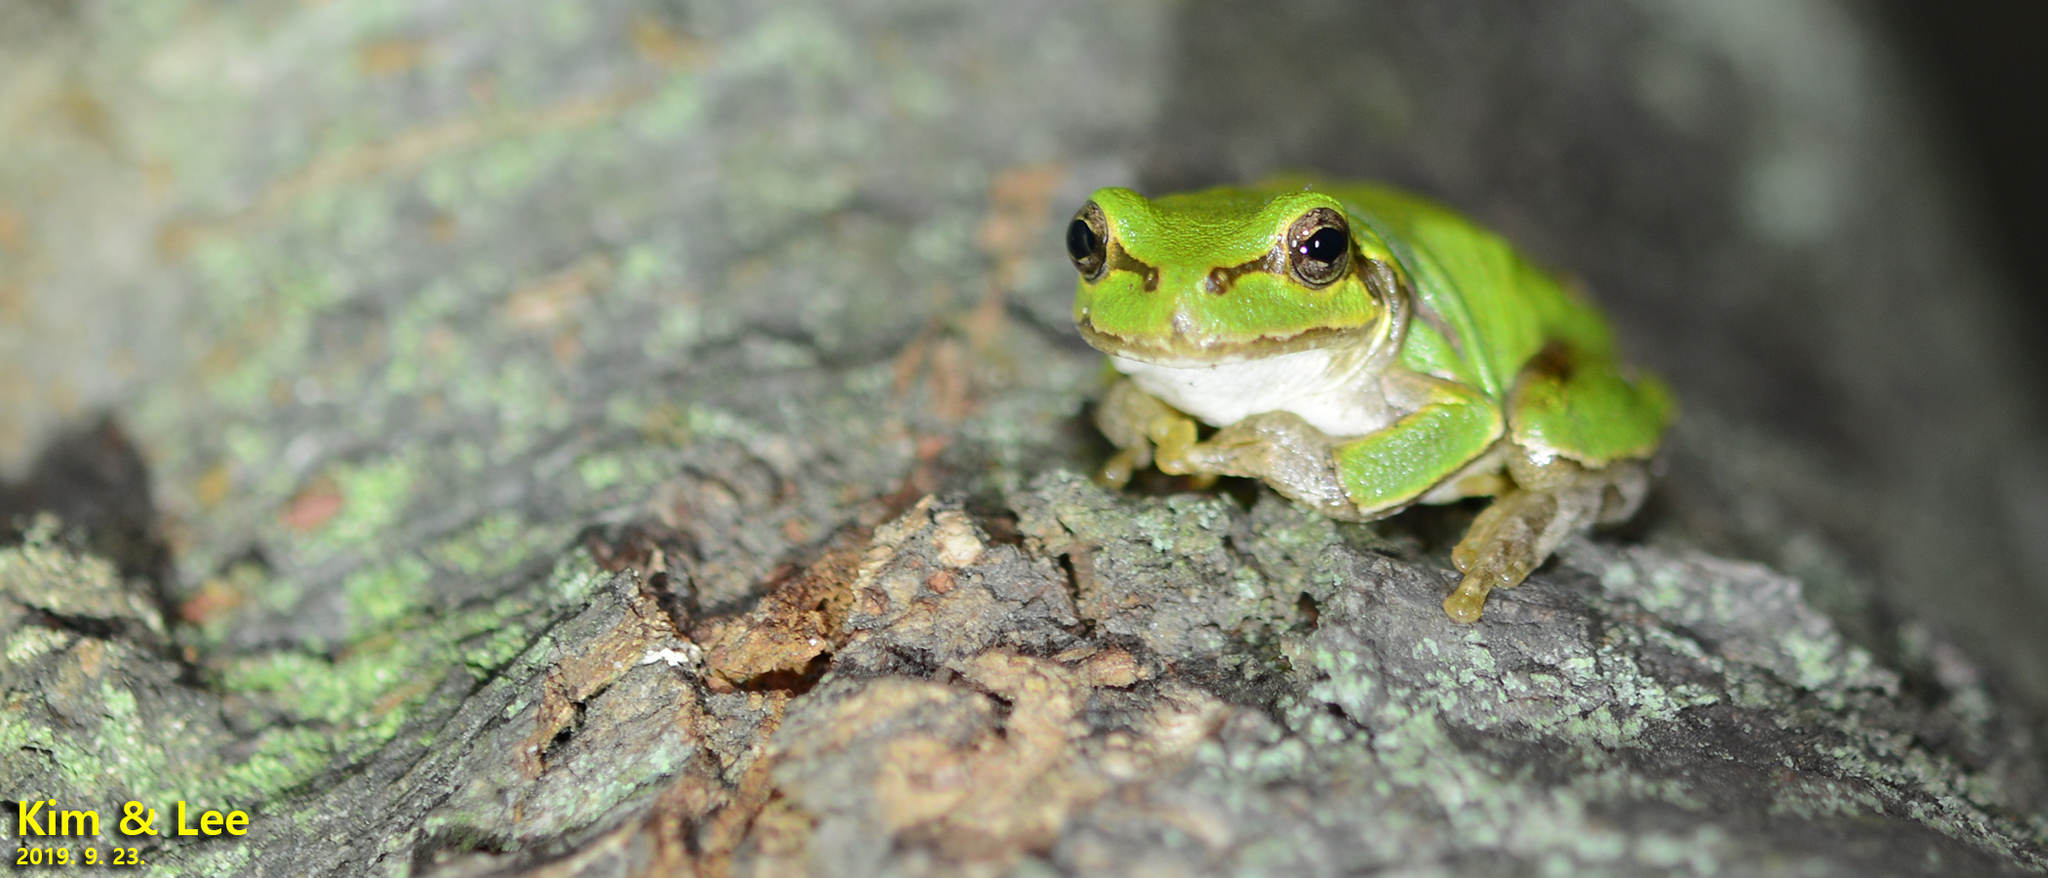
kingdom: Animalia
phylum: Chordata
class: Amphibia
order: Anura
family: Hylidae
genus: Dryophytes
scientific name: Dryophytes japonicus
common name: Japanese treefrog
